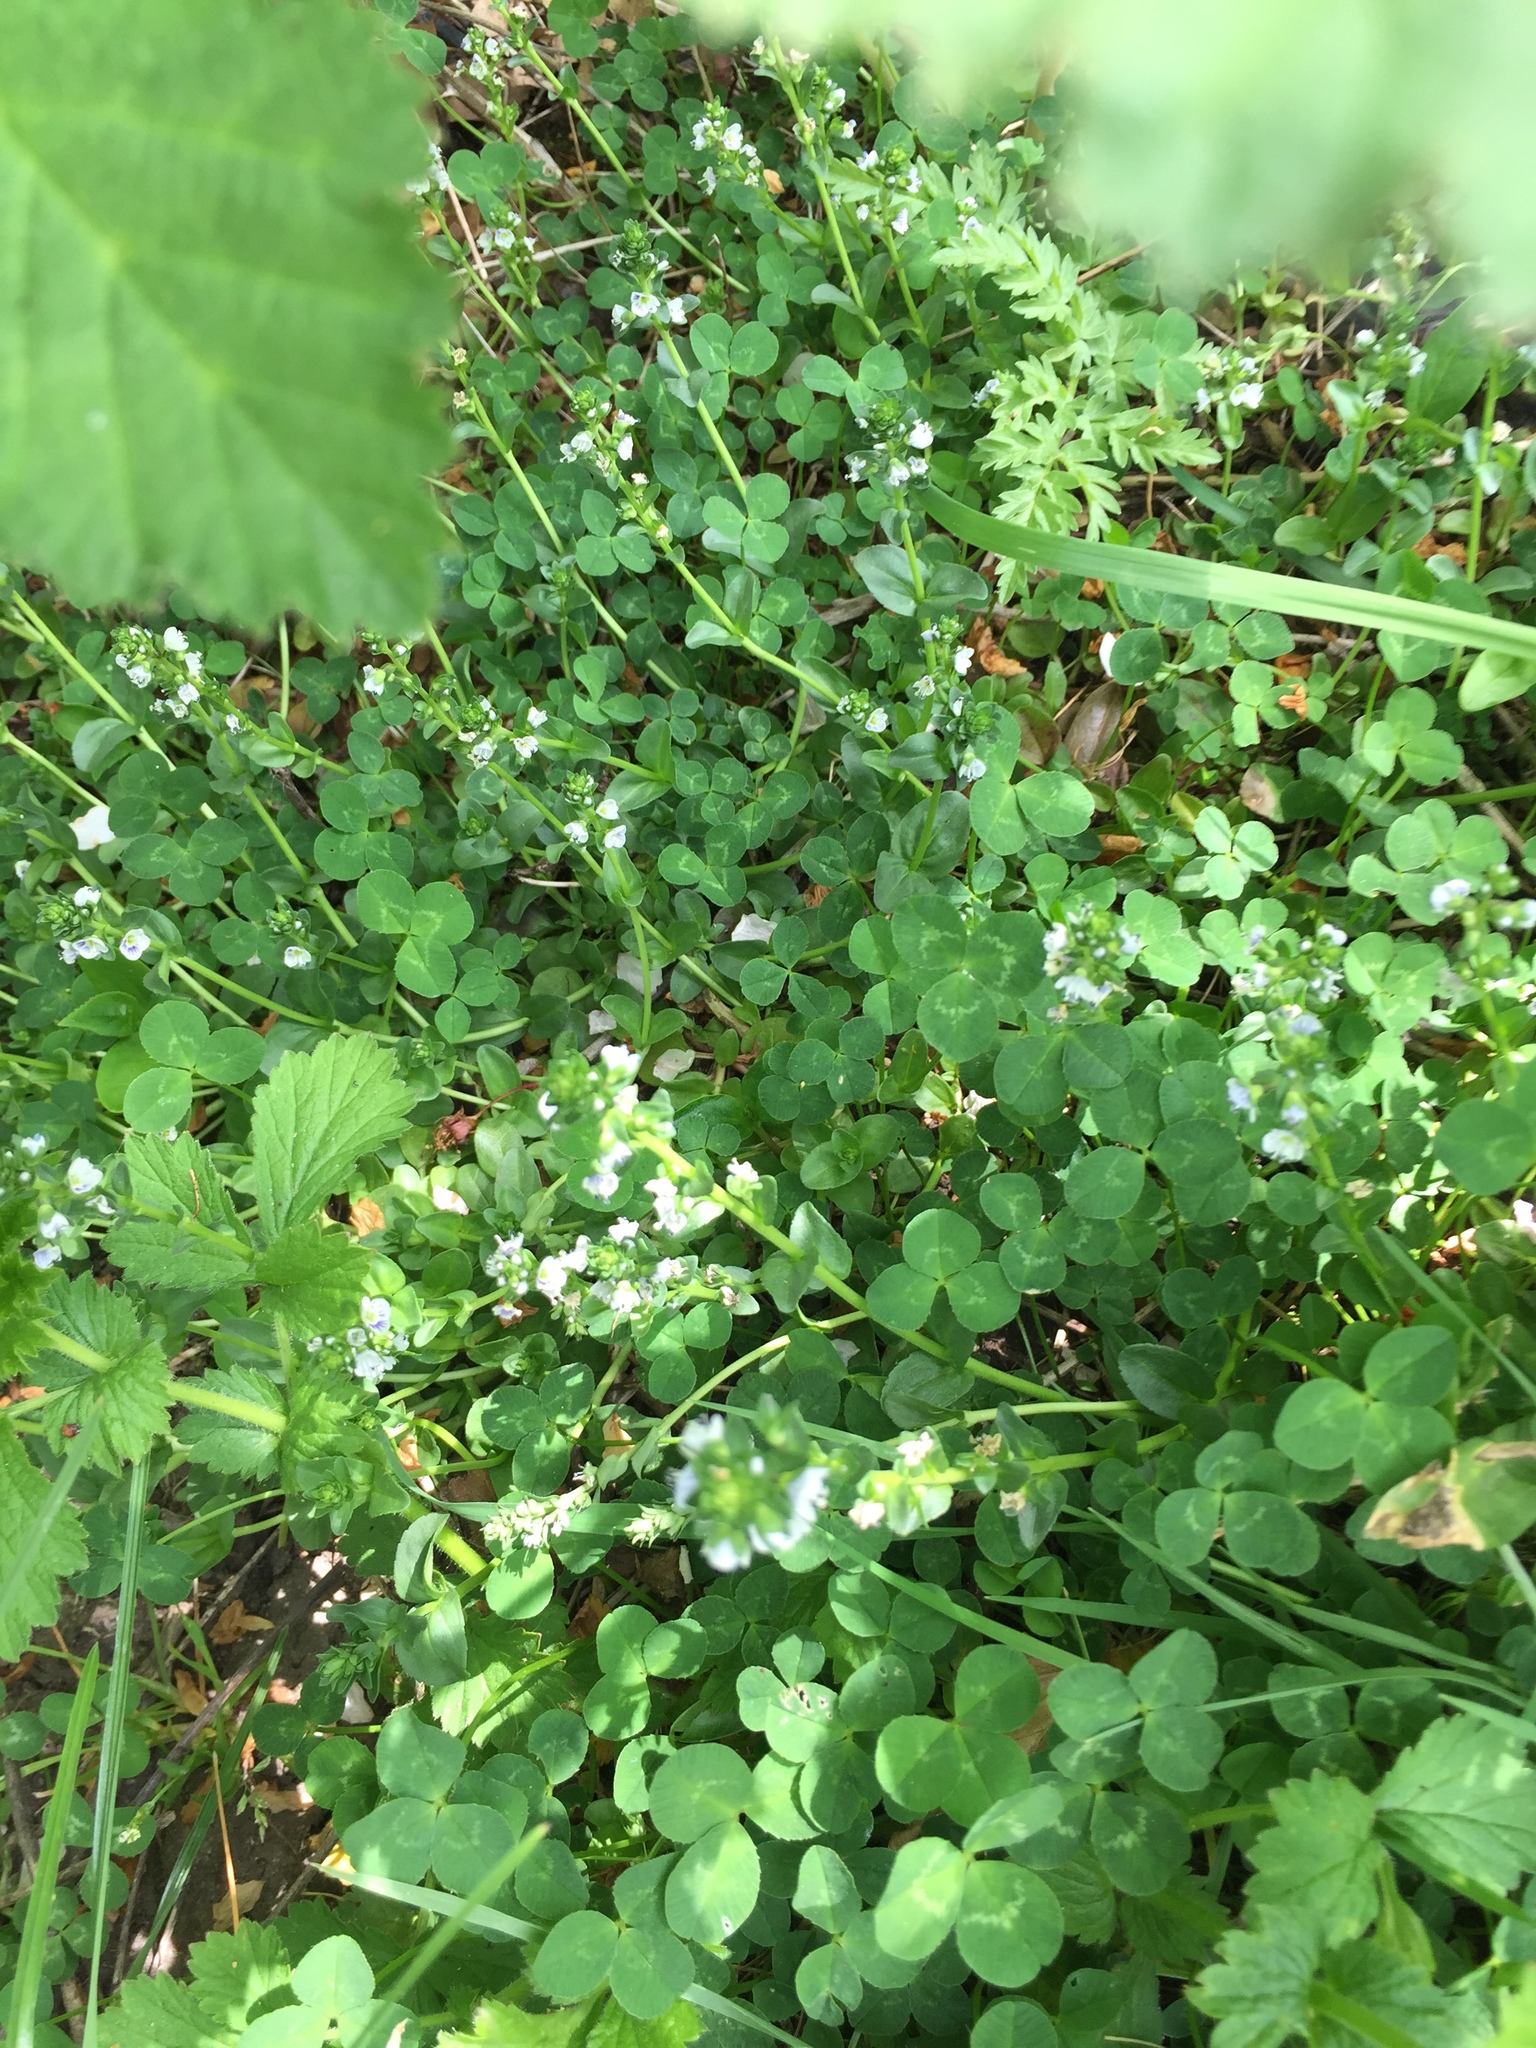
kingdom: Plantae
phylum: Tracheophyta
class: Magnoliopsida
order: Lamiales
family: Plantaginaceae
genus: Veronica
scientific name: Veronica serpyllifolia
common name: Thyme-leaved speedwell
